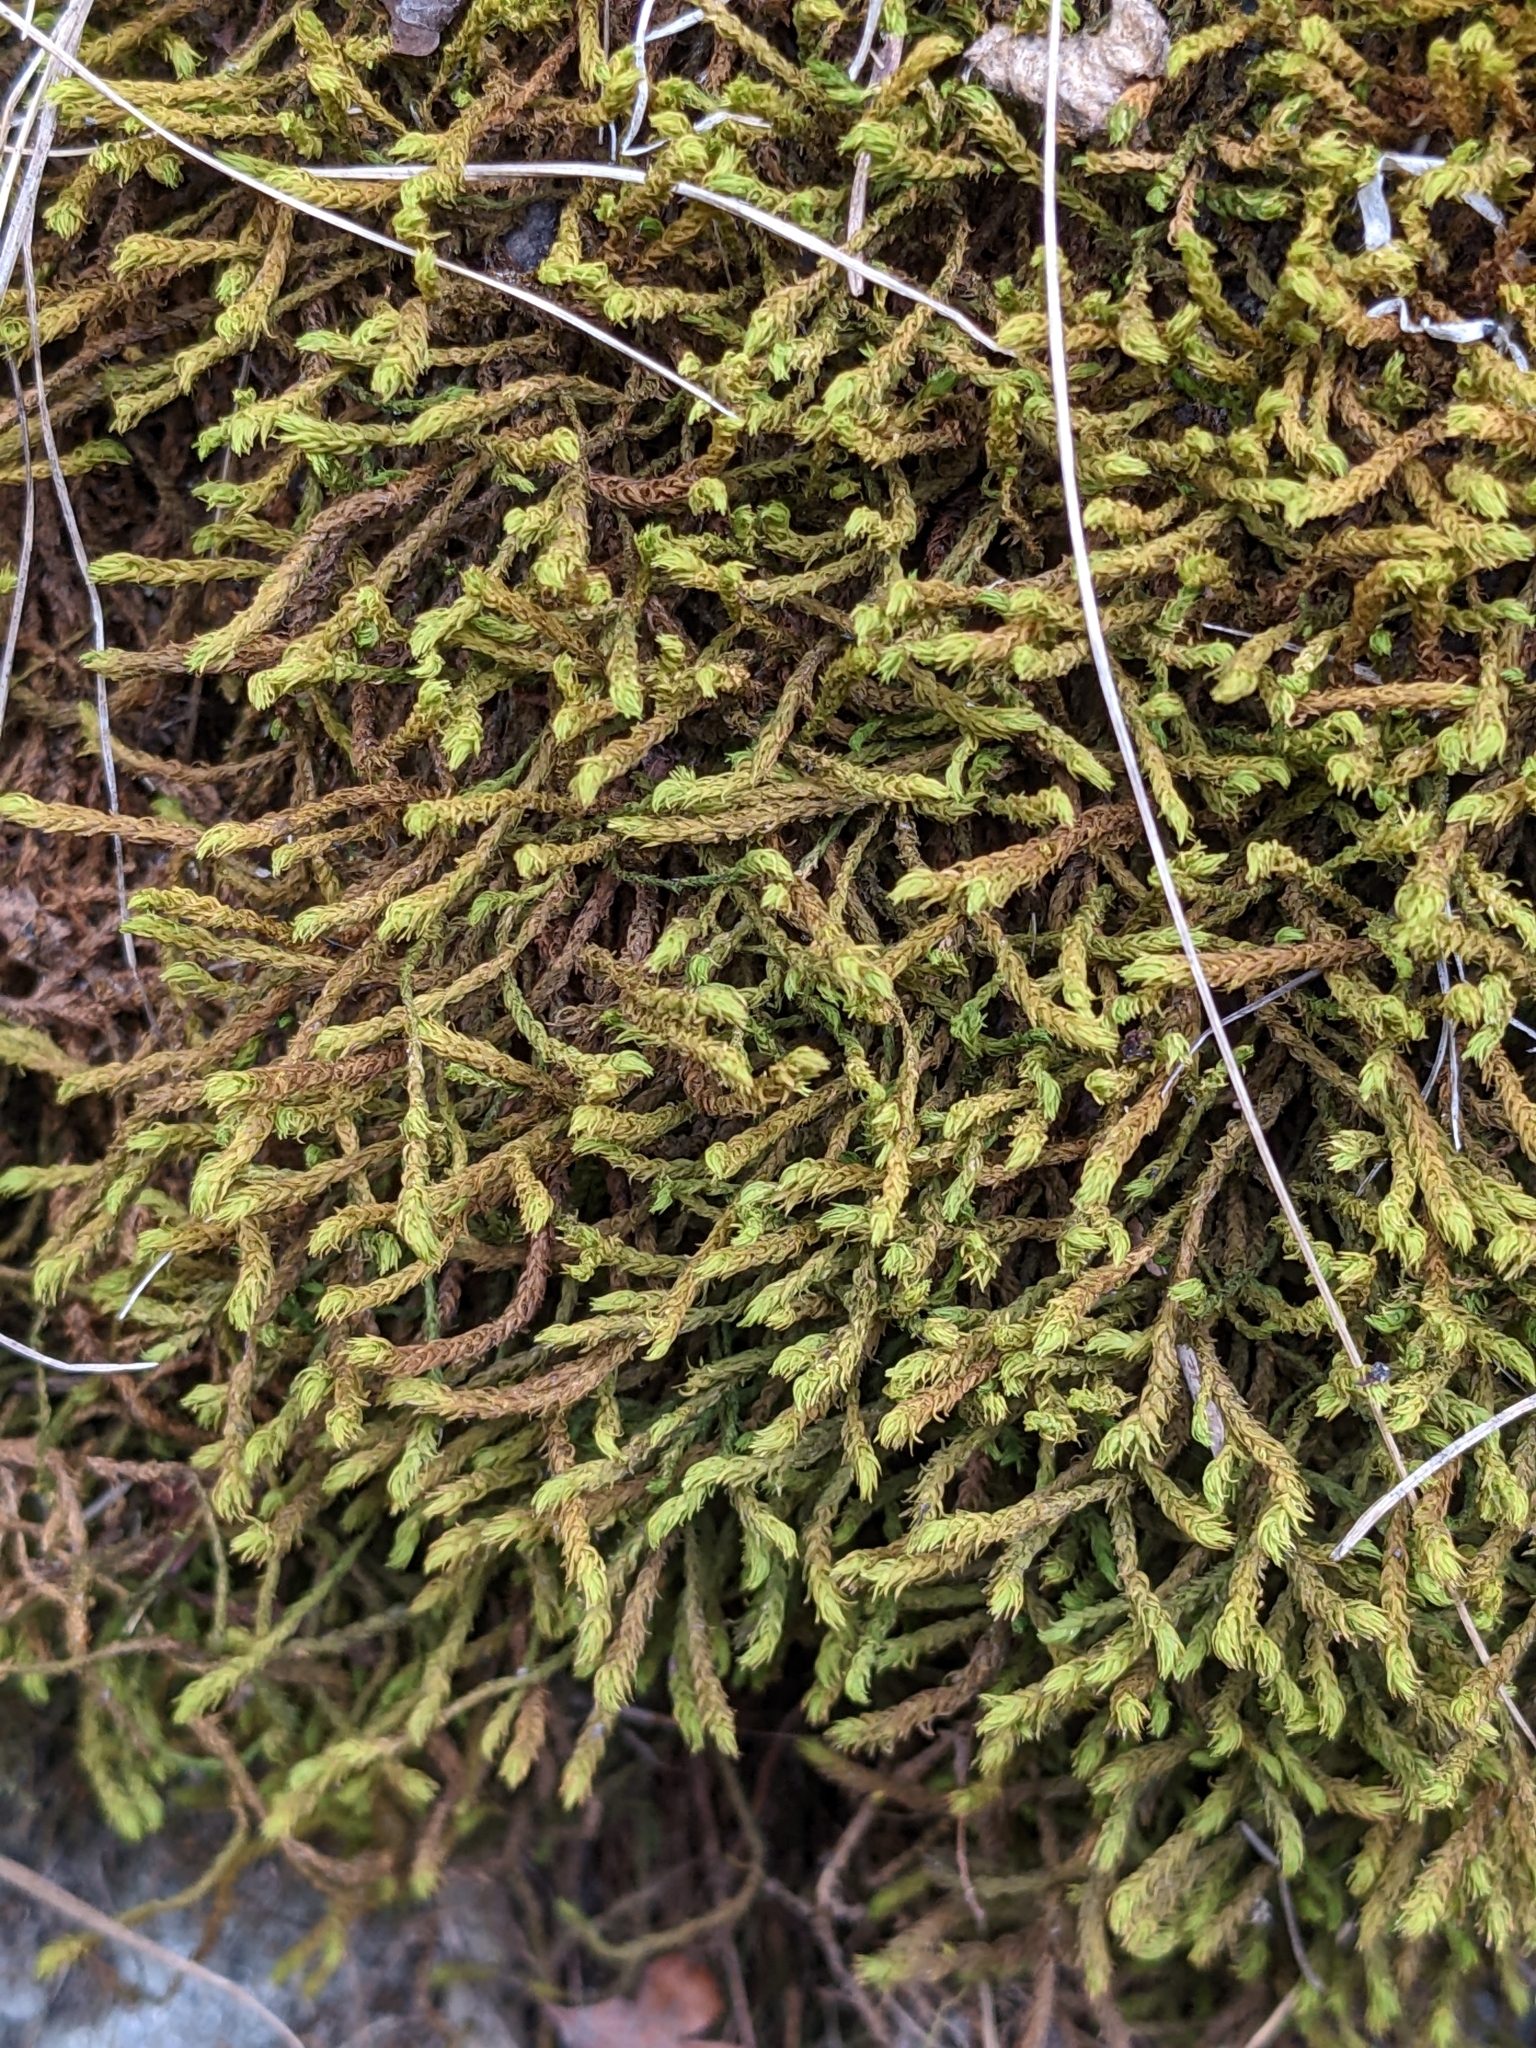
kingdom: Plantae
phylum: Bryophyta
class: Bryopsida
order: Hypnales
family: Anomodontaceae
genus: Anomodon
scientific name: Anomodon viticulosus
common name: Tall anomodon
